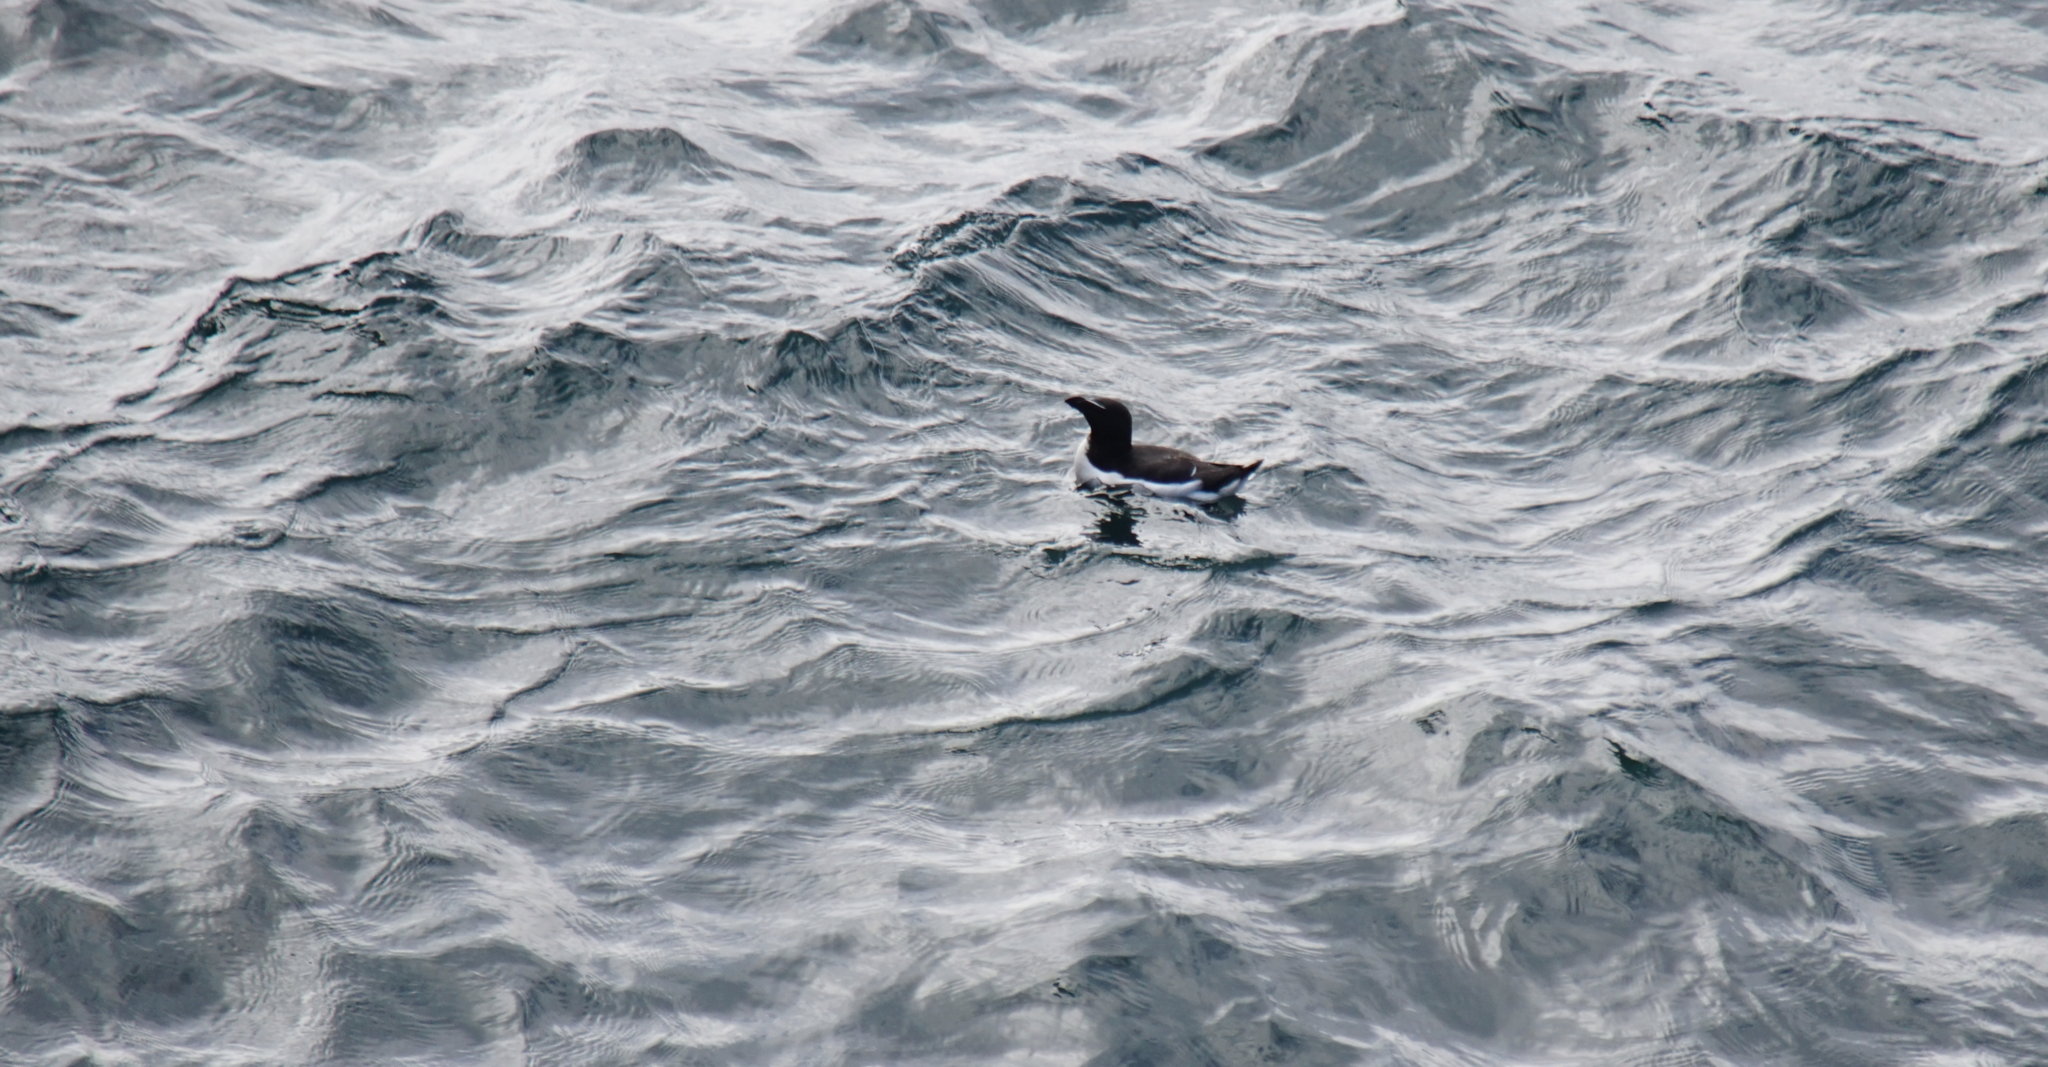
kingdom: Animalia
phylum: Chordata
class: Aves
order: Charadriiformes
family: Alcidae
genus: Uria
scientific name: Uria lomvia
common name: Thick-billed murre
